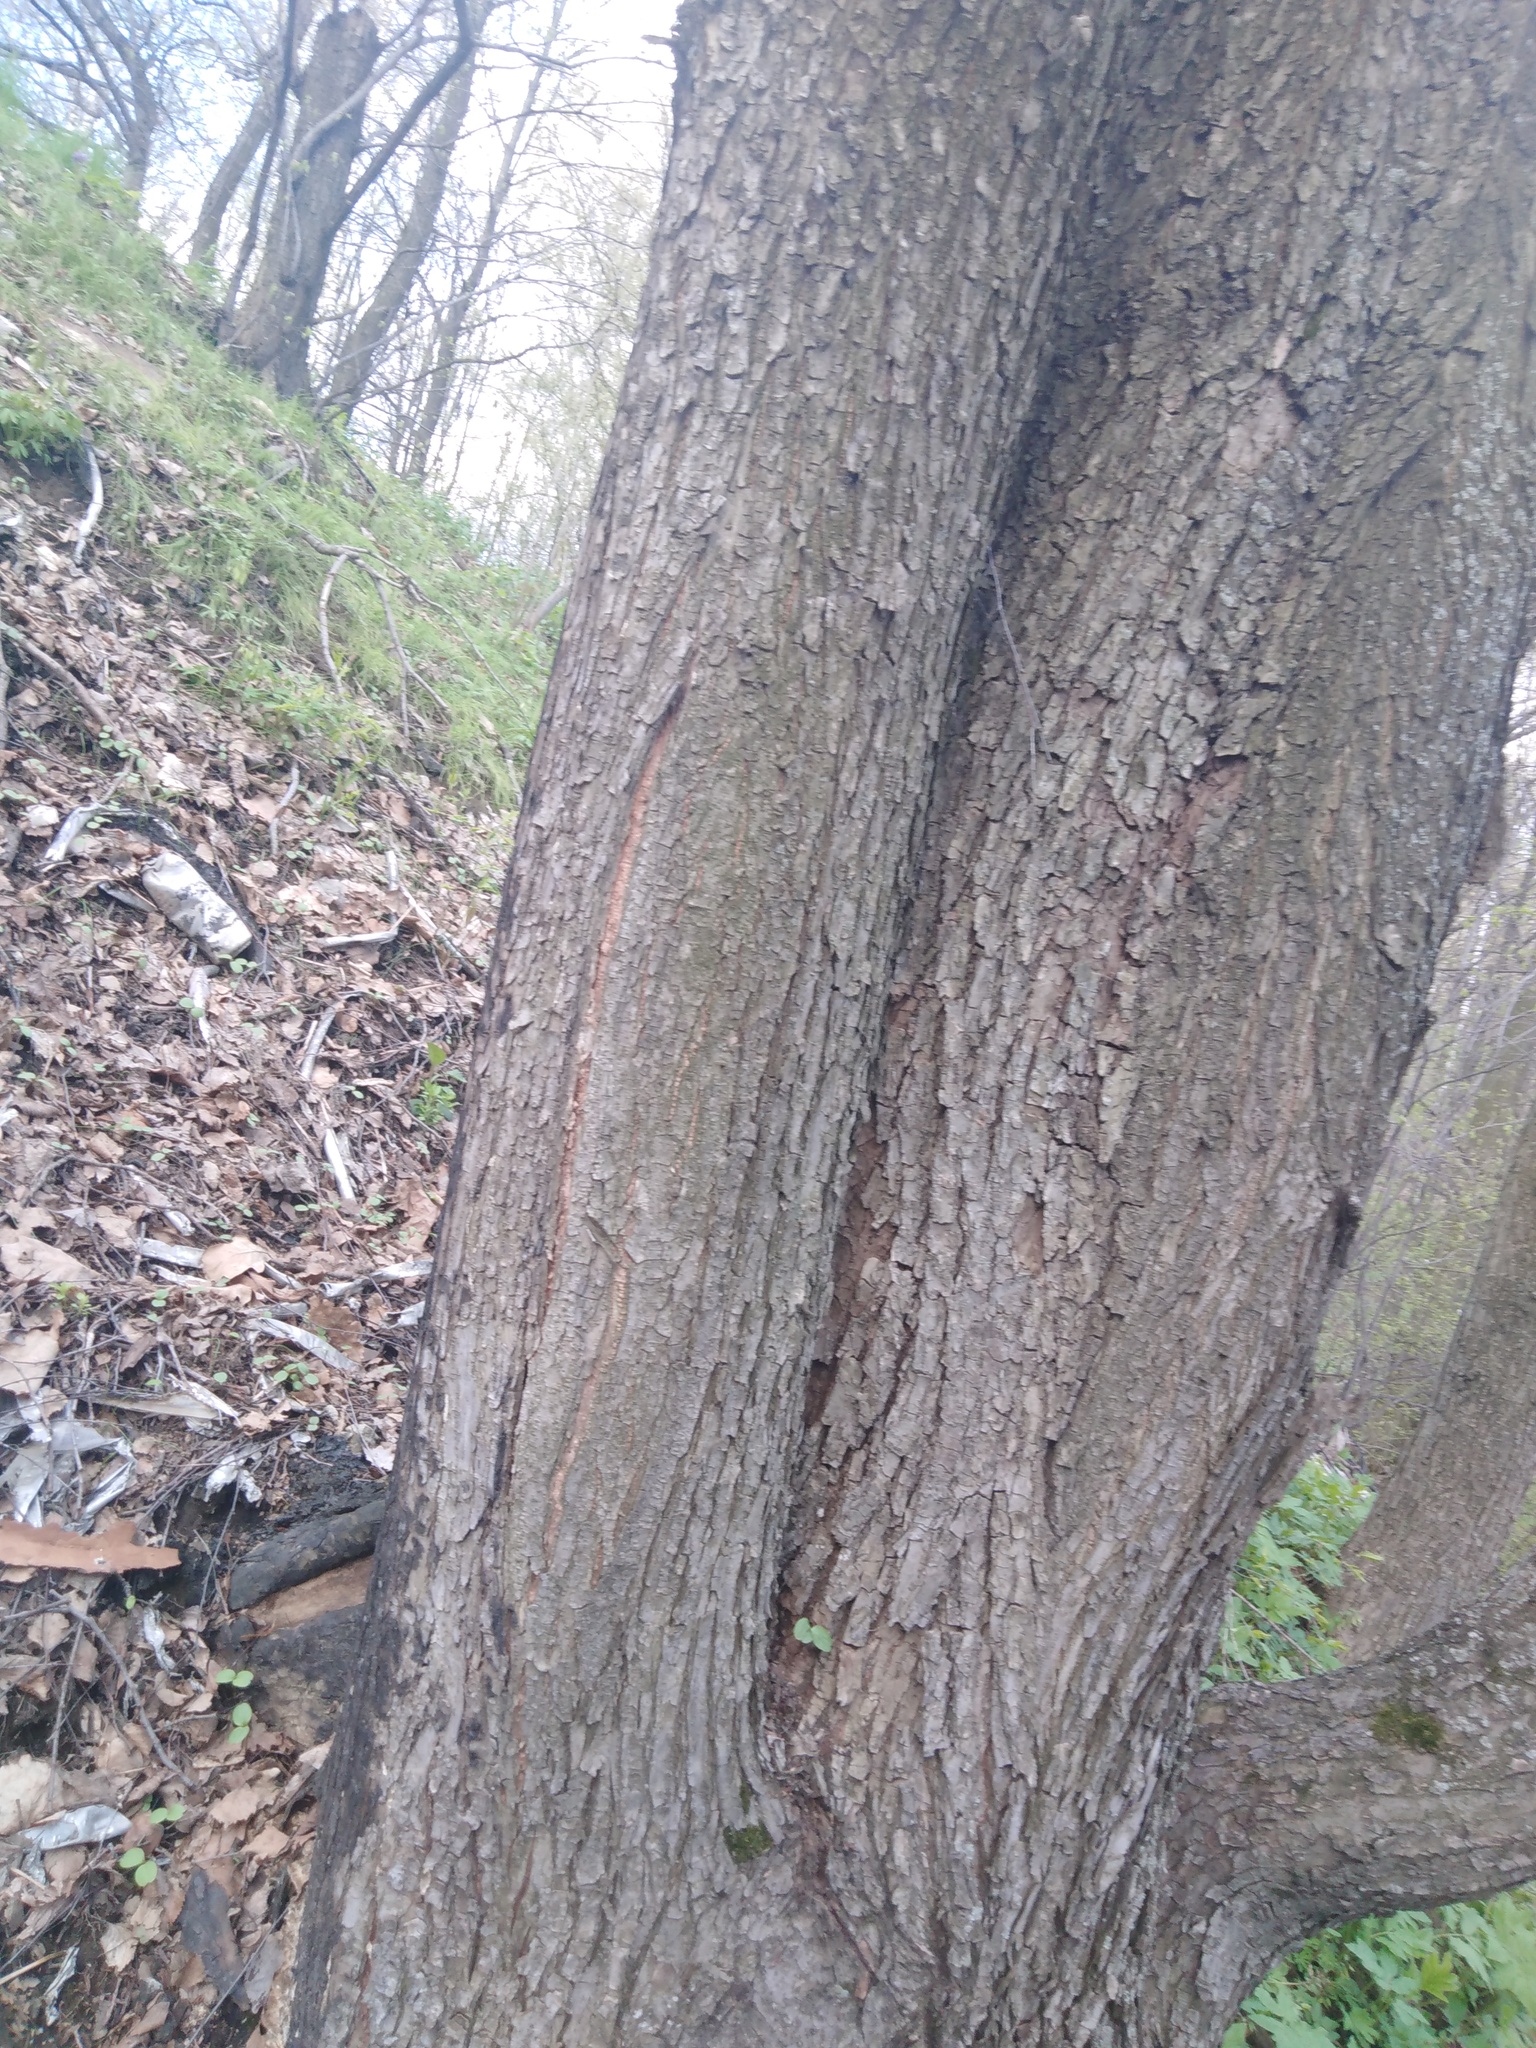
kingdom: Plantae
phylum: Tracheophyta
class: Magnoliopsida
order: Fagales
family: Fagaceae
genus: Quercus
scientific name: Quercus robur
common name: Pedunculate oak
